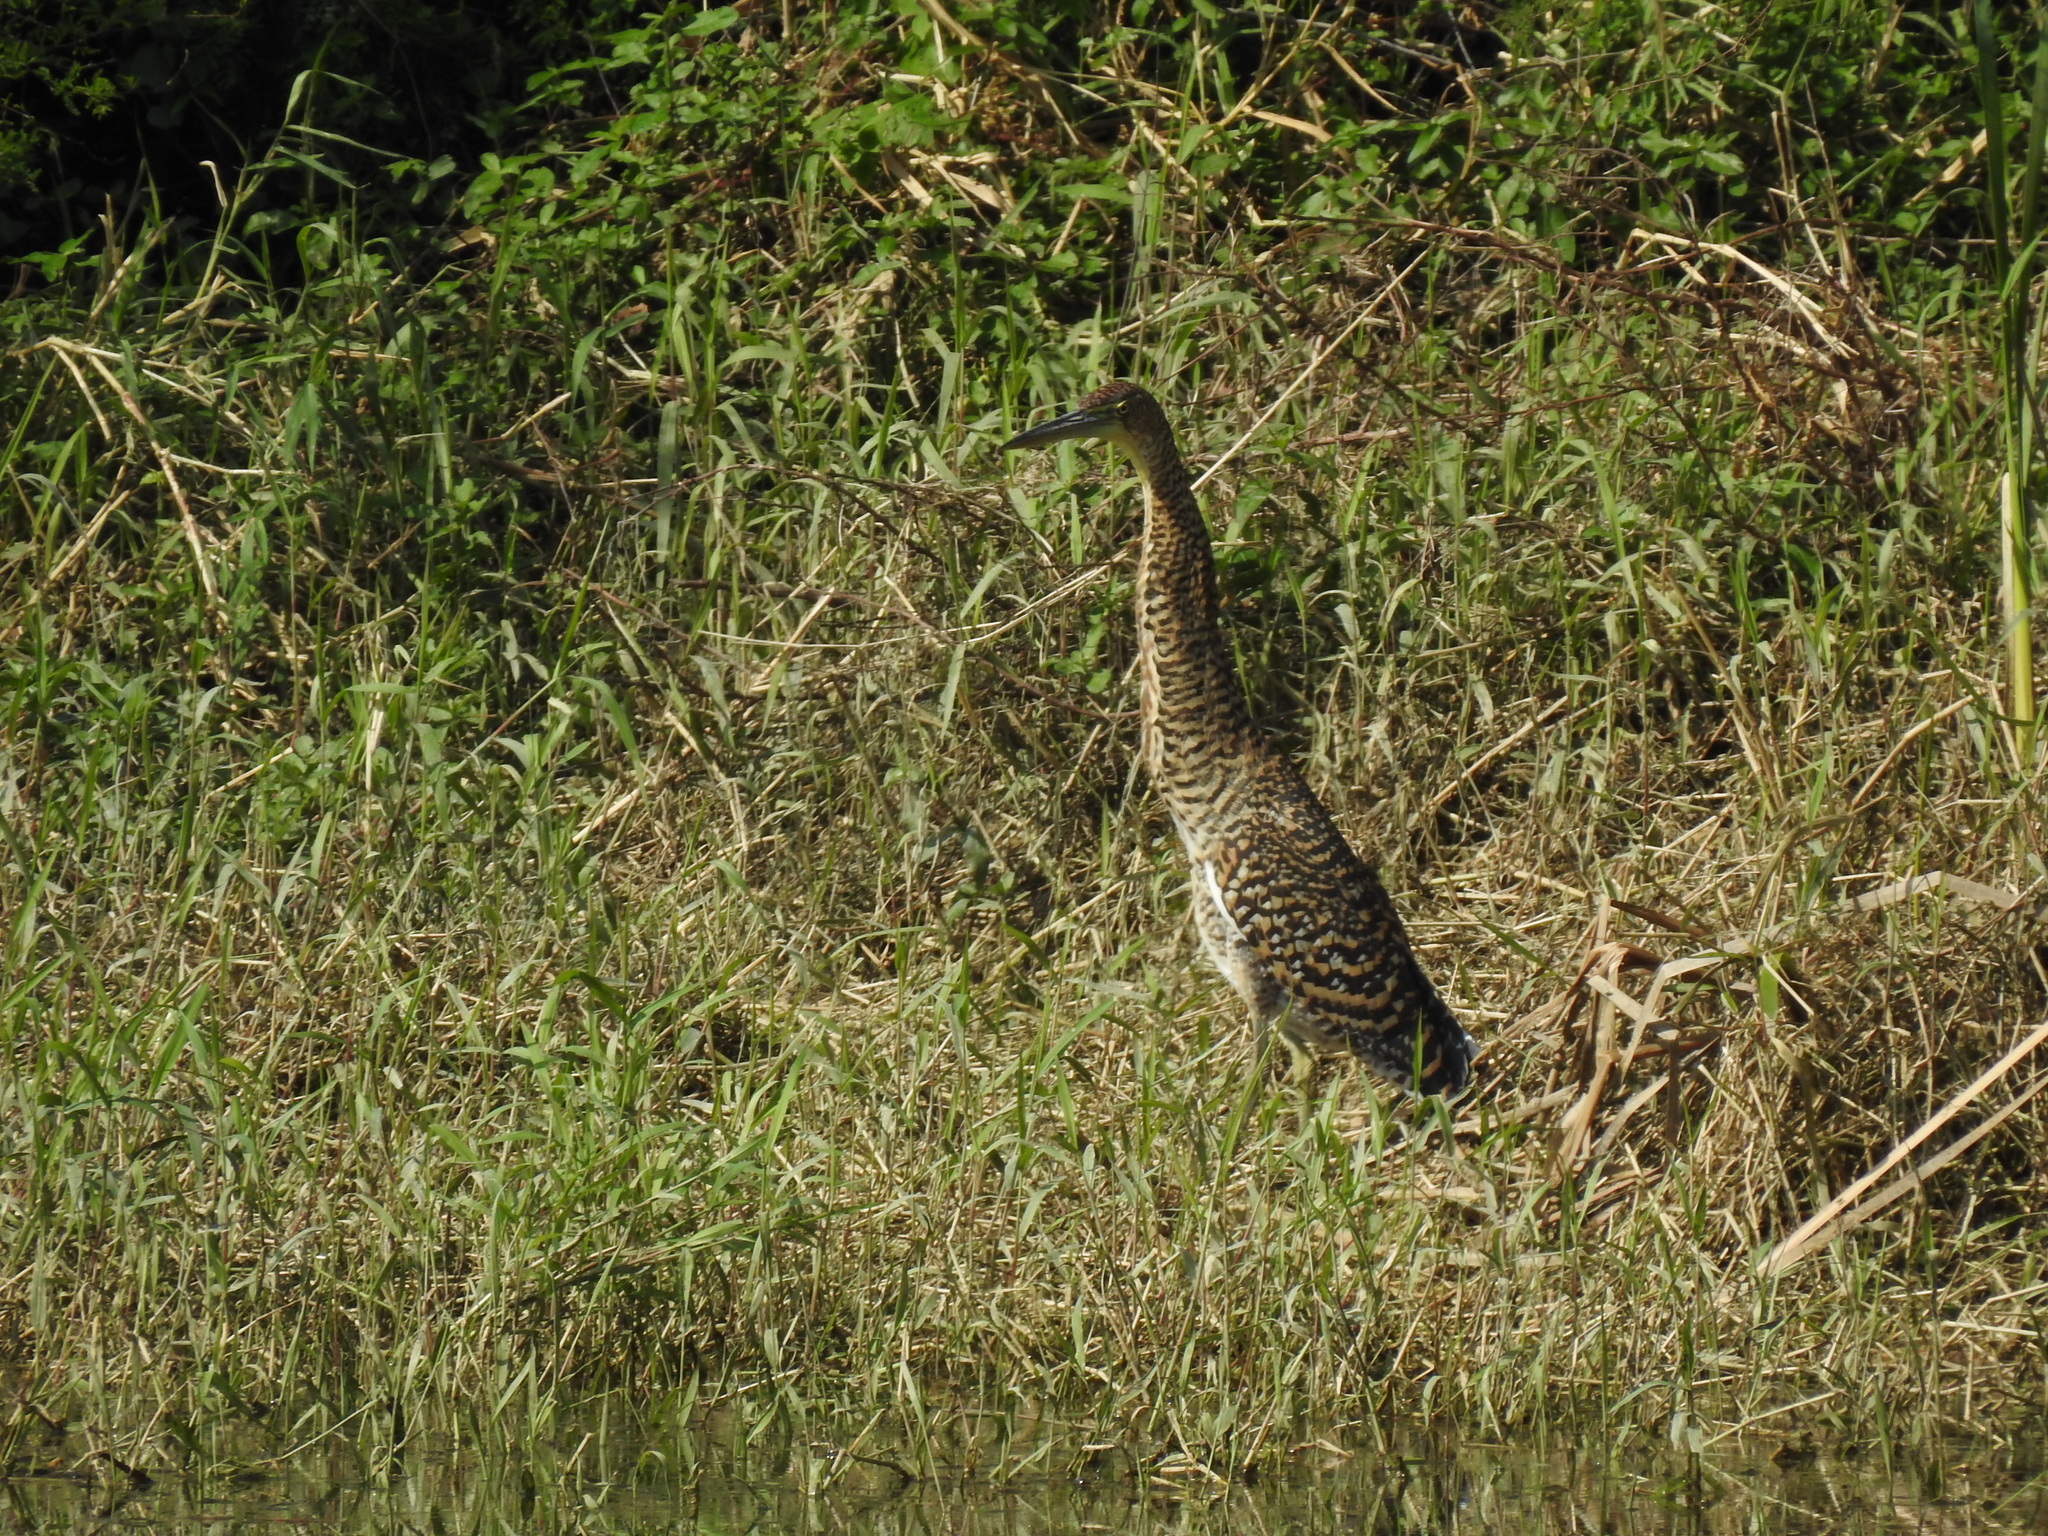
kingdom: Animalia
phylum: Chordata
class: Aves
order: Pelecaniformes
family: Ardeidae
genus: Tigrisoma
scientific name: Tigrisoma mexicanum
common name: Bare-throated tiger-heron
